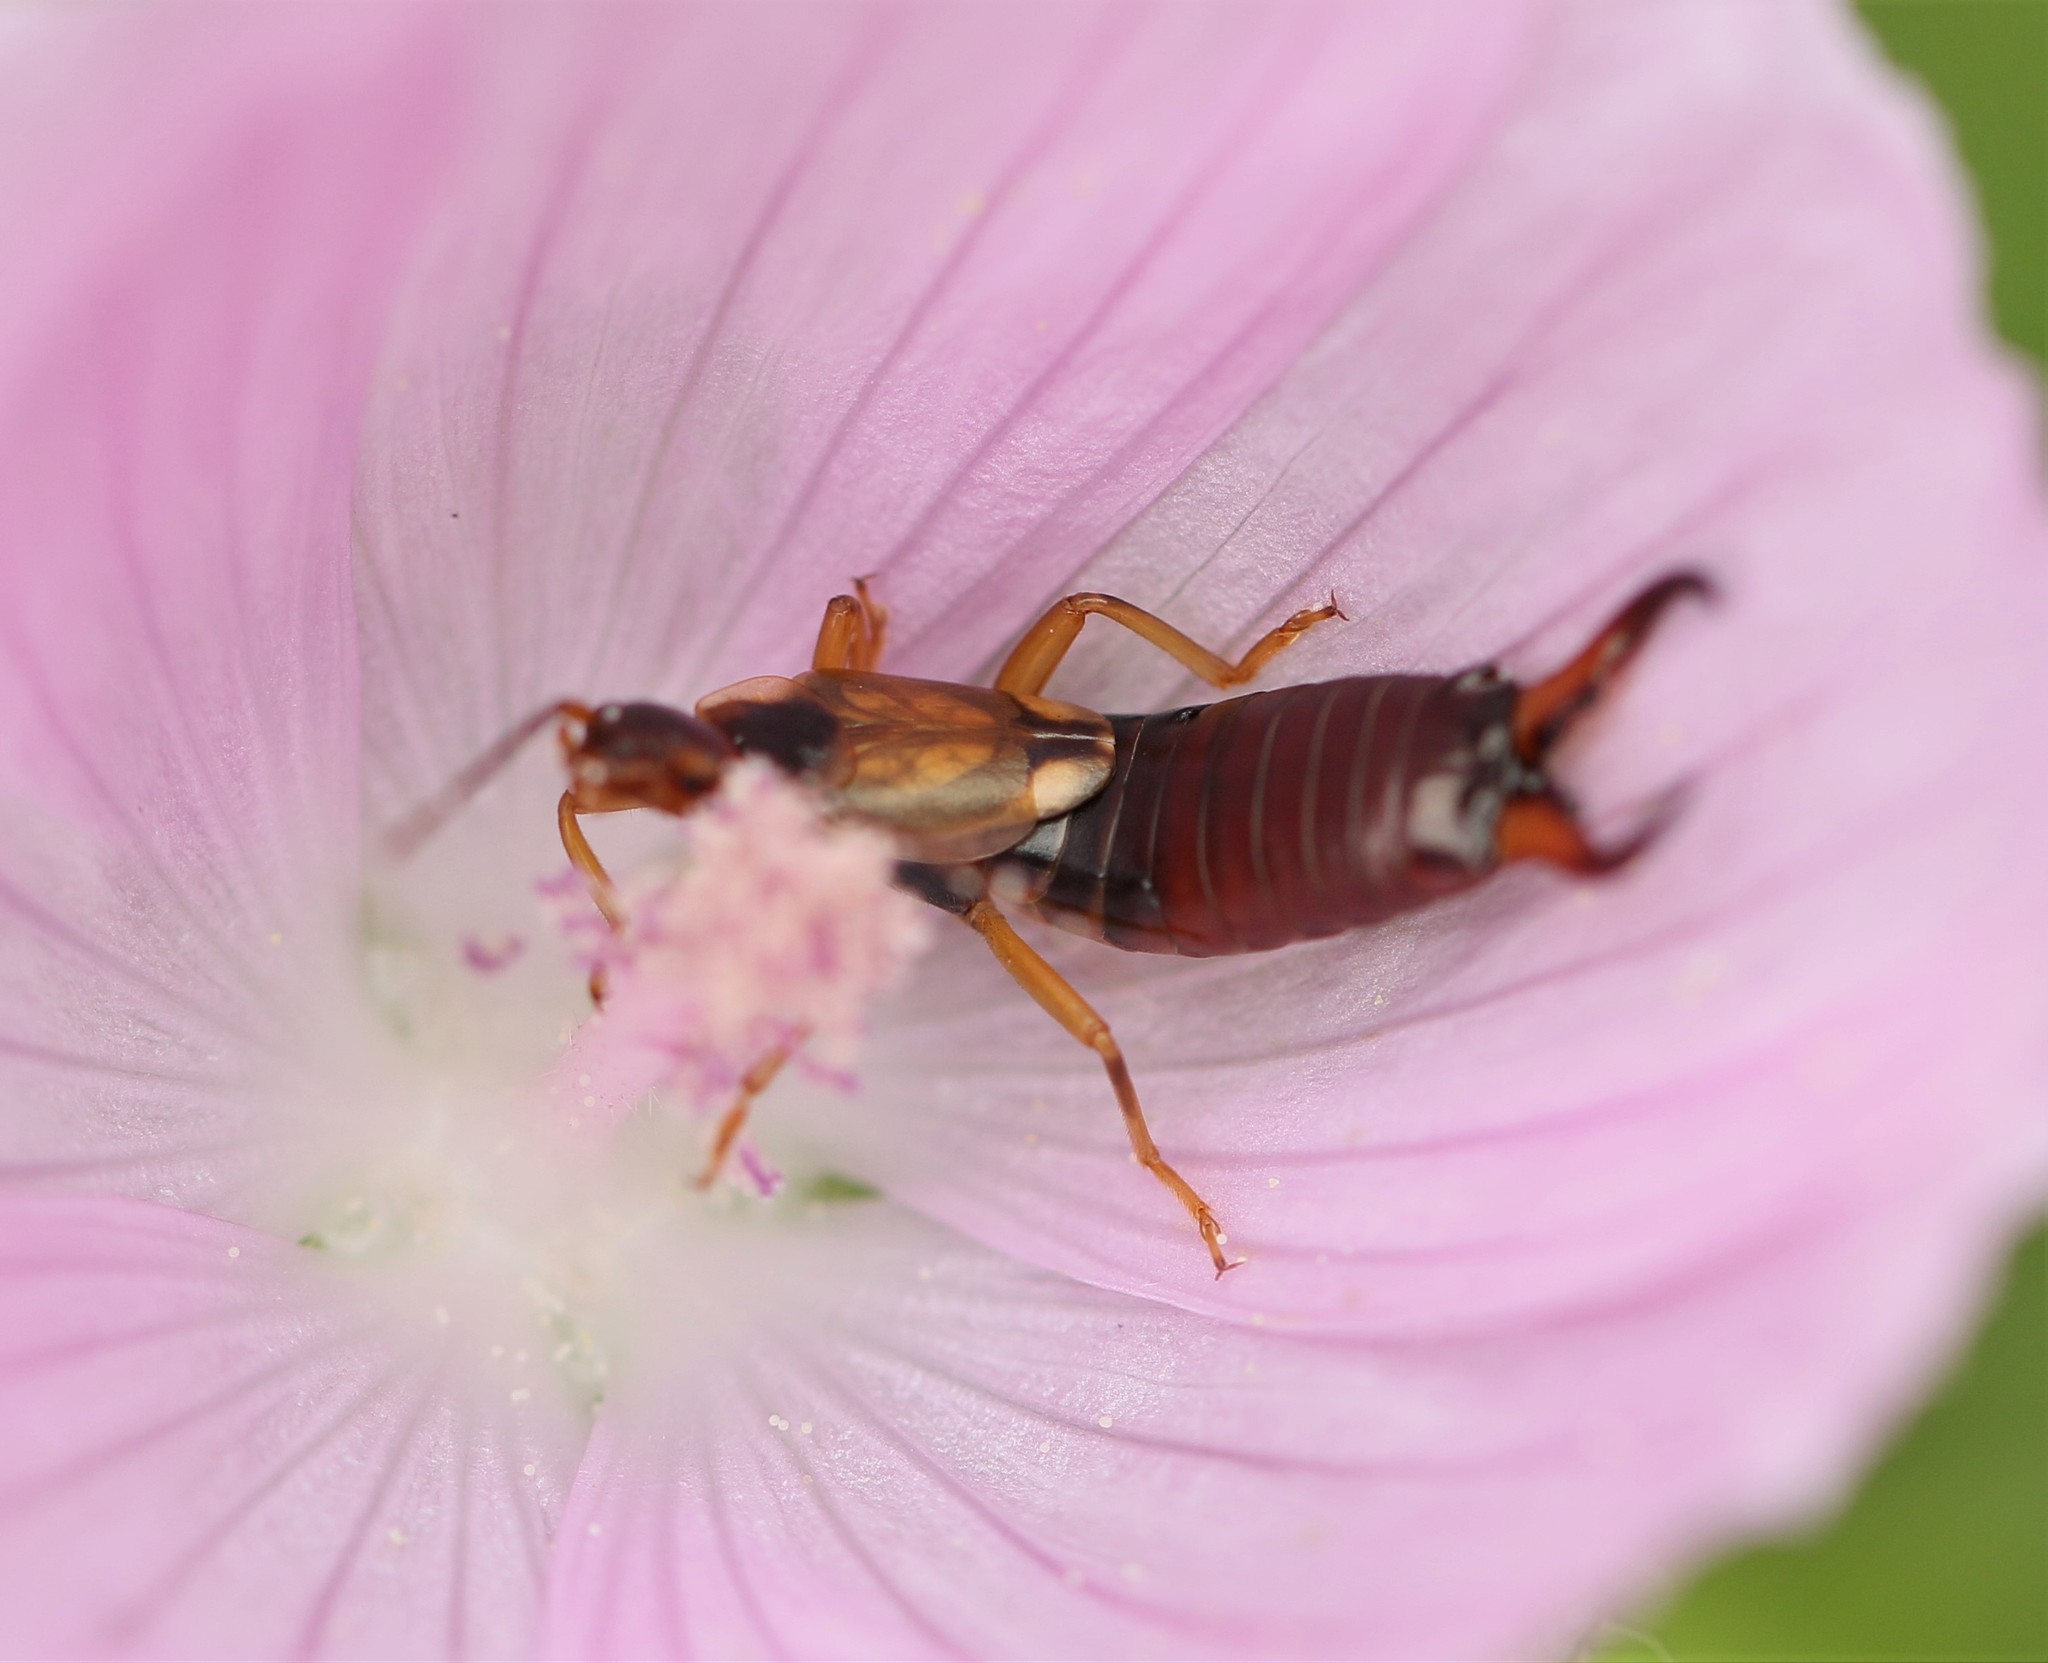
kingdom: Animalia
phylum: Arthropoda
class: Insecta
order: Dermaptera
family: Forficulidae
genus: Forficula
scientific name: Forficula
